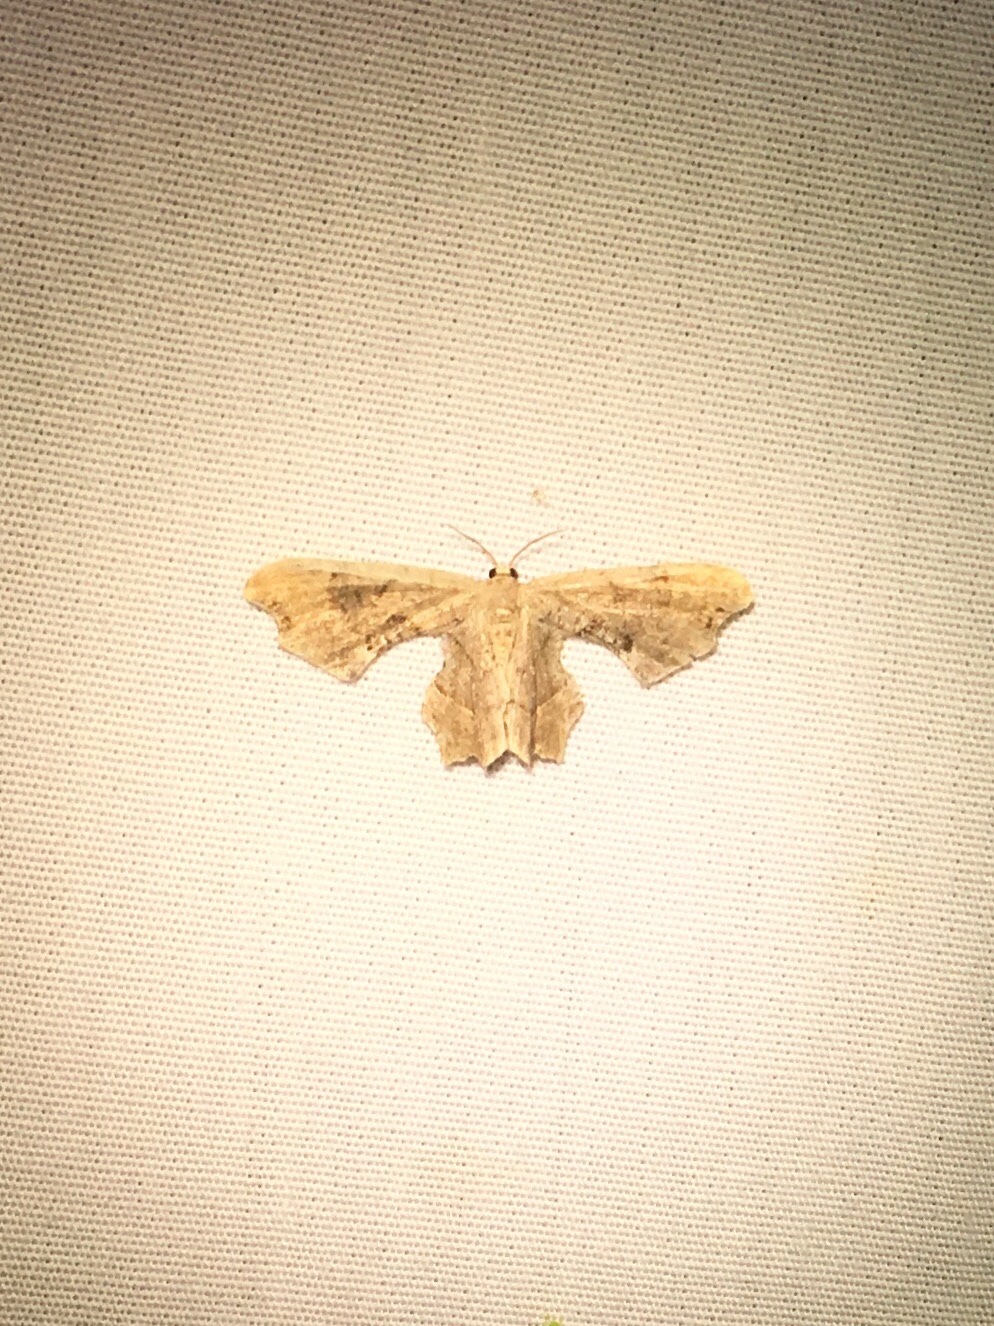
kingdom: Animalia
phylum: Arthropoda
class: Insecta
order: Lepidoptera
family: Uraniidae
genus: Epiplema
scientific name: Epiplema Calledapteryx dryopterata
